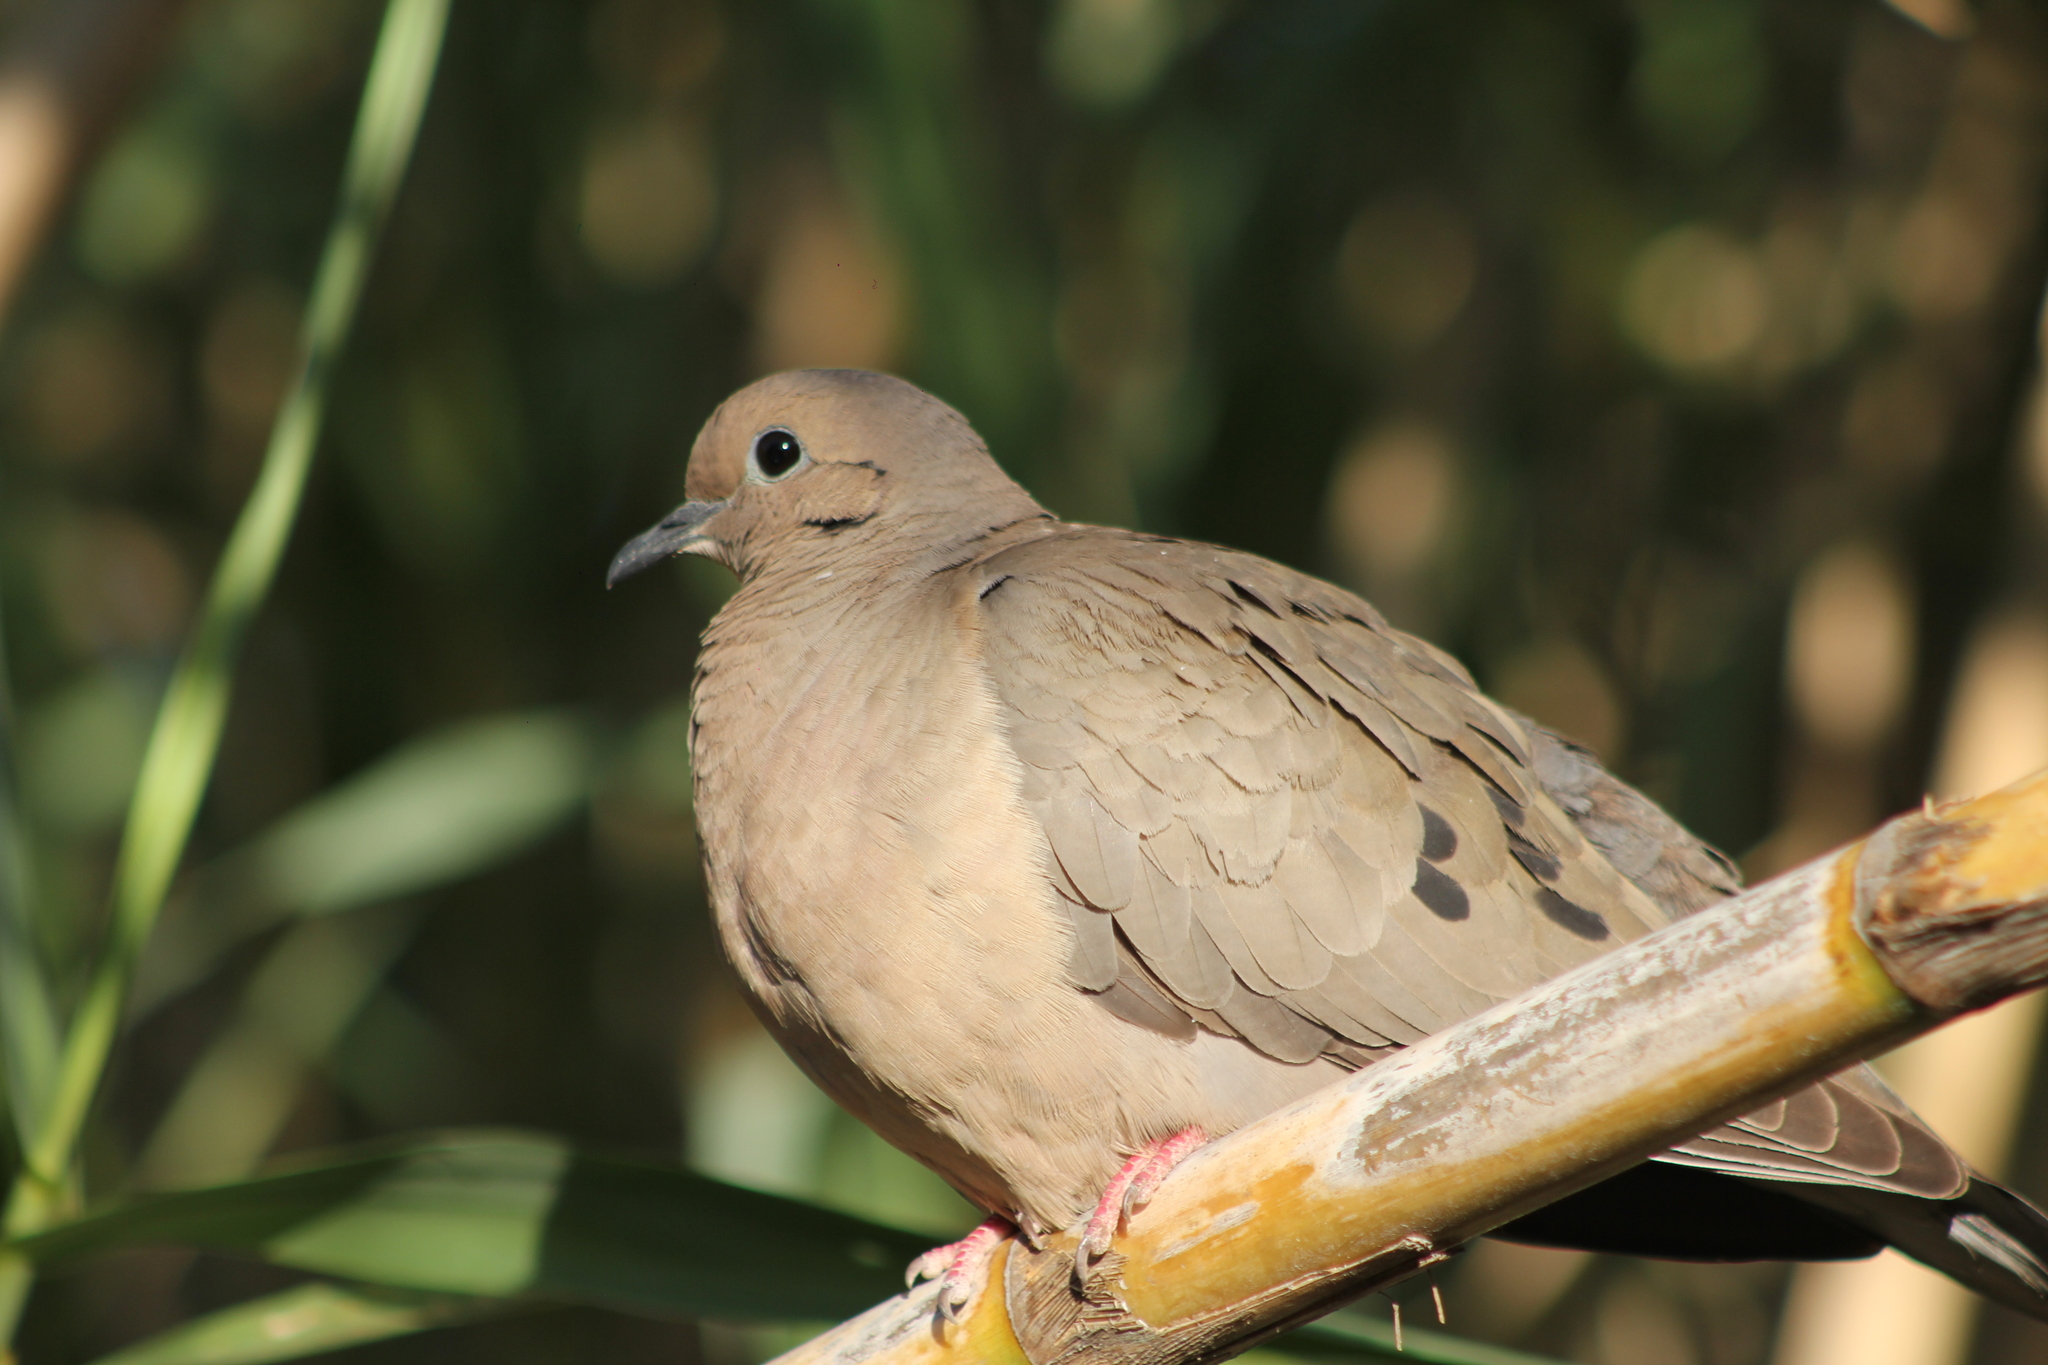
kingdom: Animalia
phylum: Chordata
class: Aves
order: Columbiformes
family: Columbidae
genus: Zenaida
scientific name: Zenaida auriculata
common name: Eared dove
